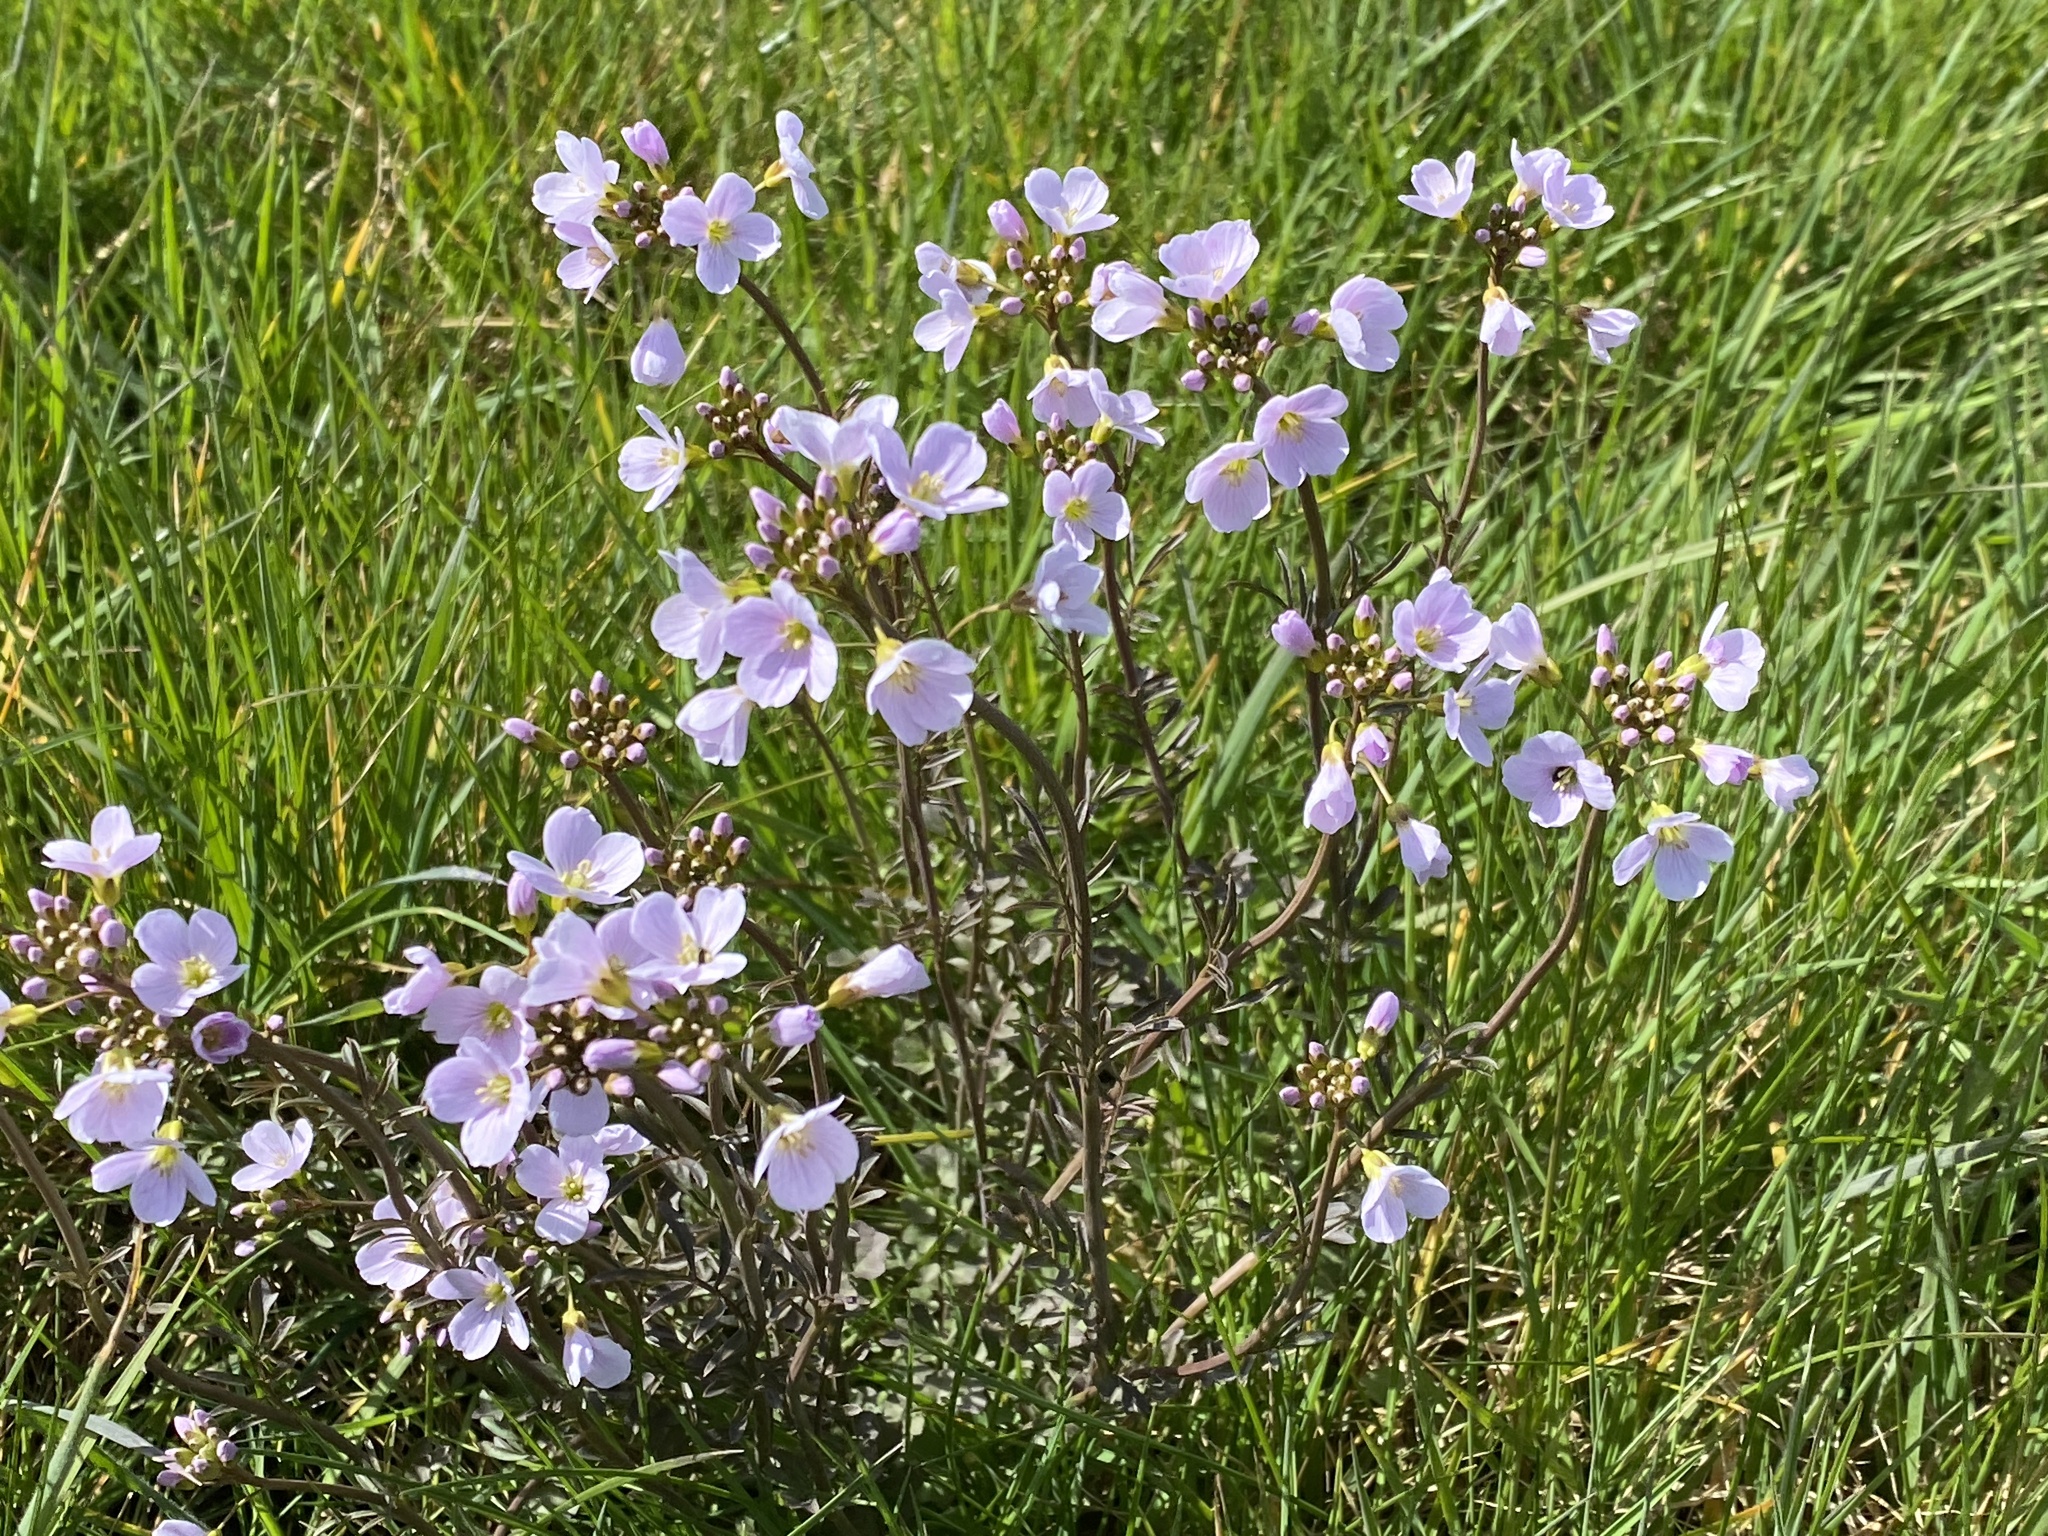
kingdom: Plantae
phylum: Tracheophyta
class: Magnoliopsida
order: Brassicales
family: Brassicaceae
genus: Cardamine
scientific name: Cardamine pratensis
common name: Cuckoo flower
